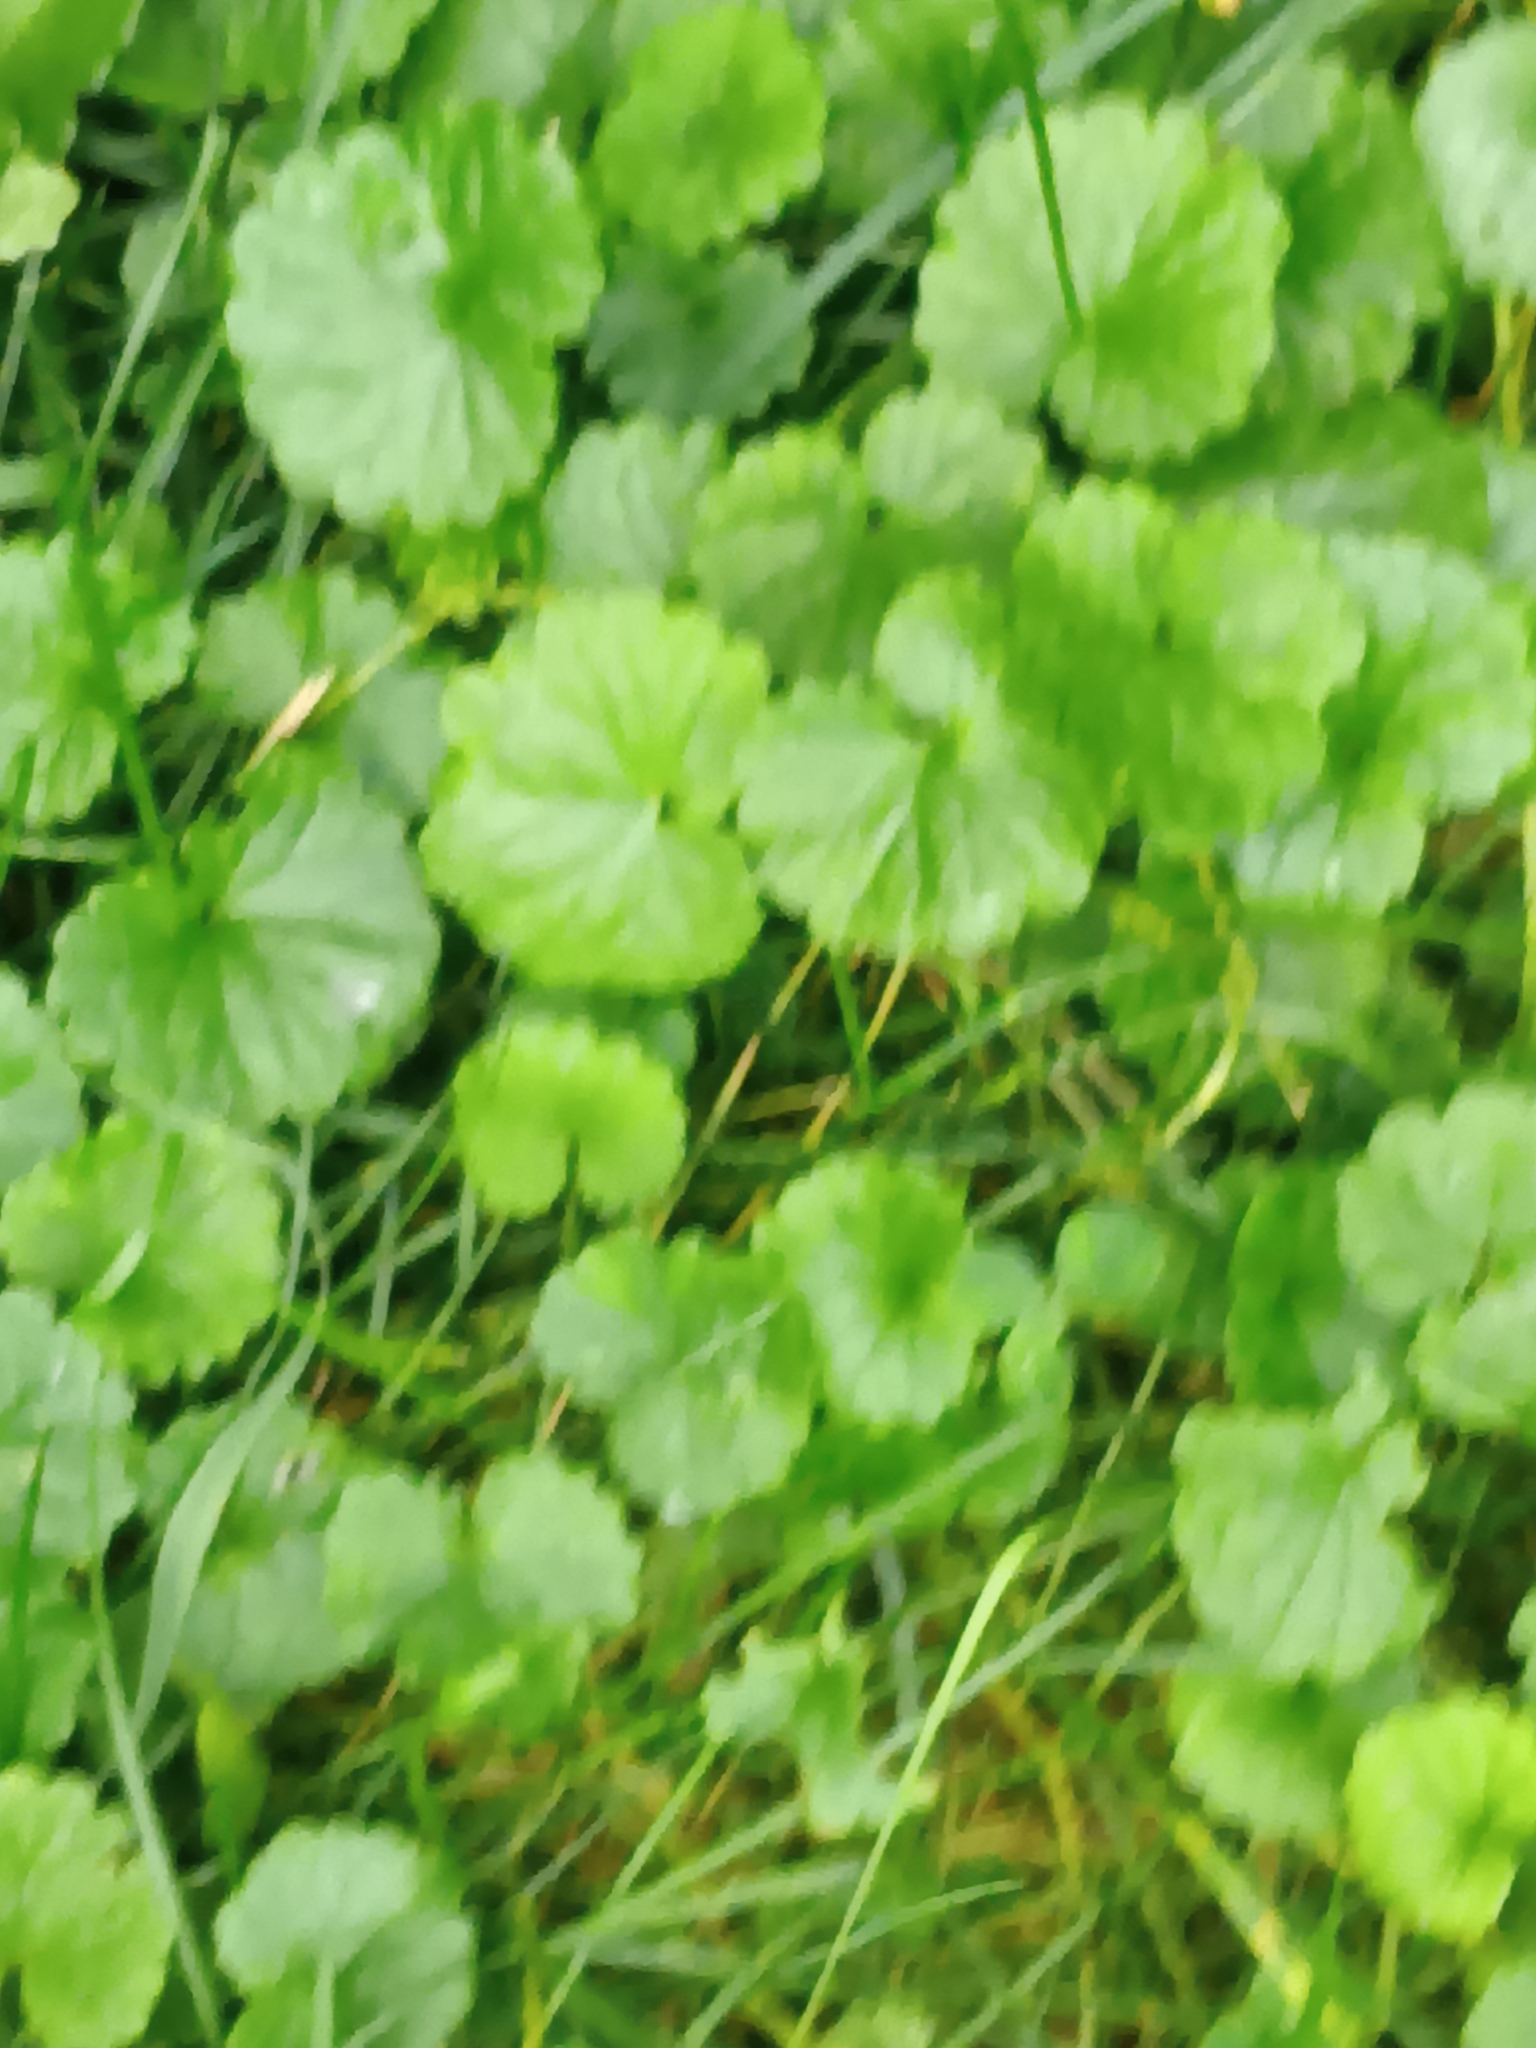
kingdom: Plantae
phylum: Tracheophyta
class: Magnoliopsida
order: Lamiales
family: Lamiaceae
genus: Glechoma
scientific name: Glechoma hederacea
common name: Ground ivy
